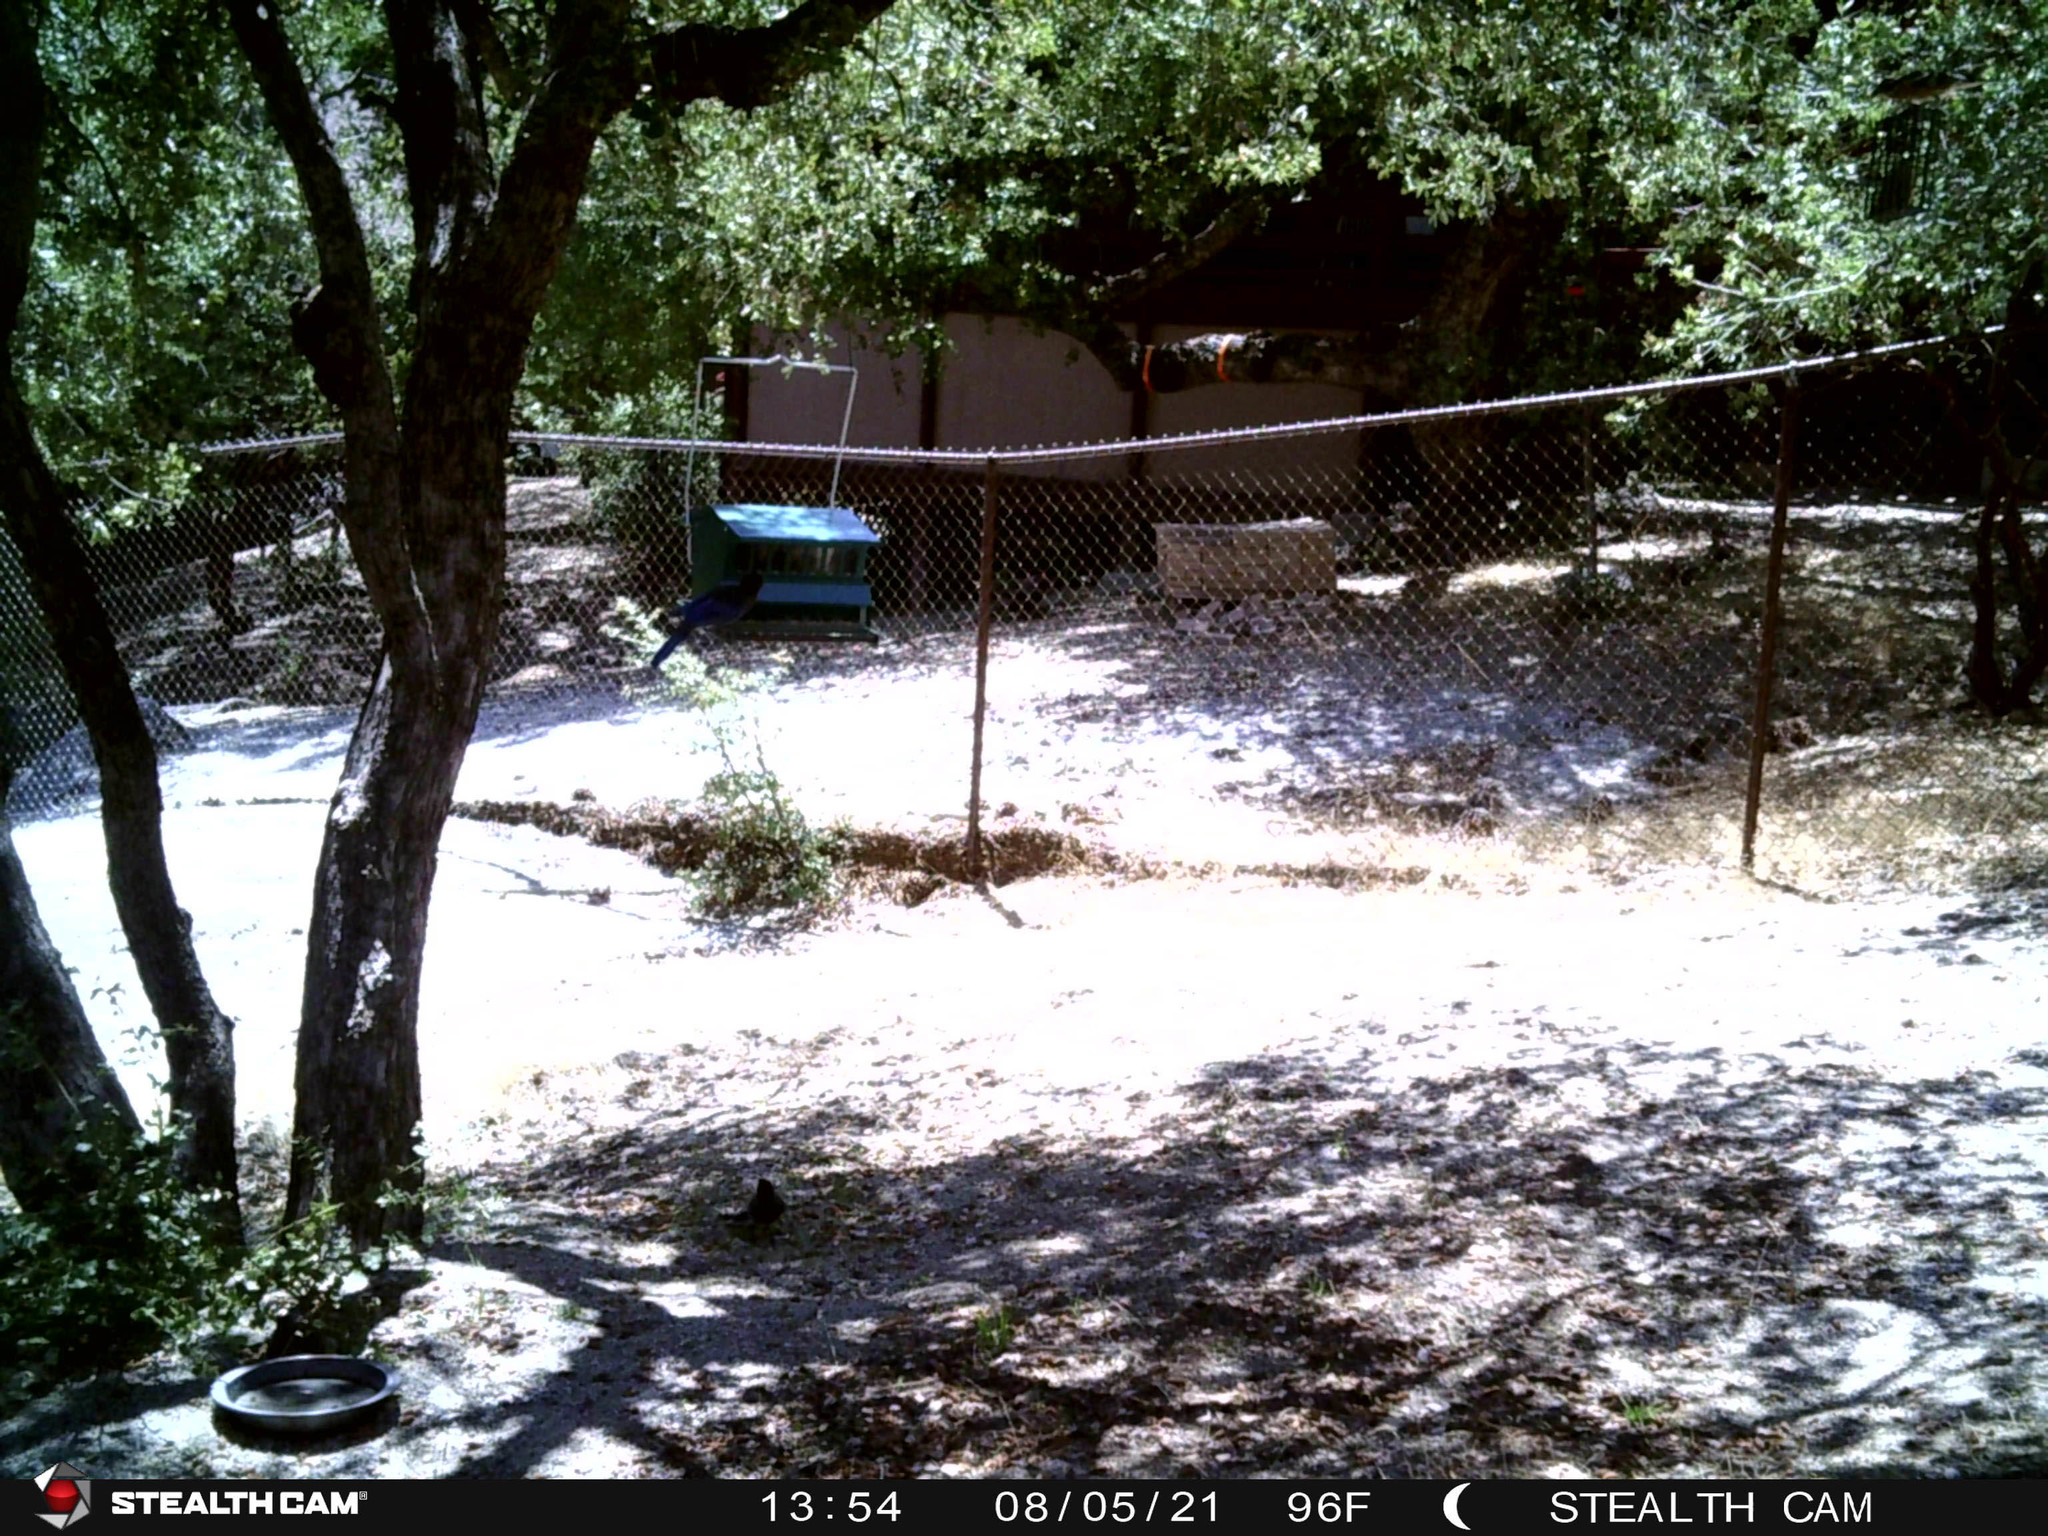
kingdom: Animalia
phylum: Chordata
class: Aves
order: Passeriformes
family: Cardinalidae
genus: Pheucticus
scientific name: Pheucticus melanocephalus
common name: Black-headed grosbeak
